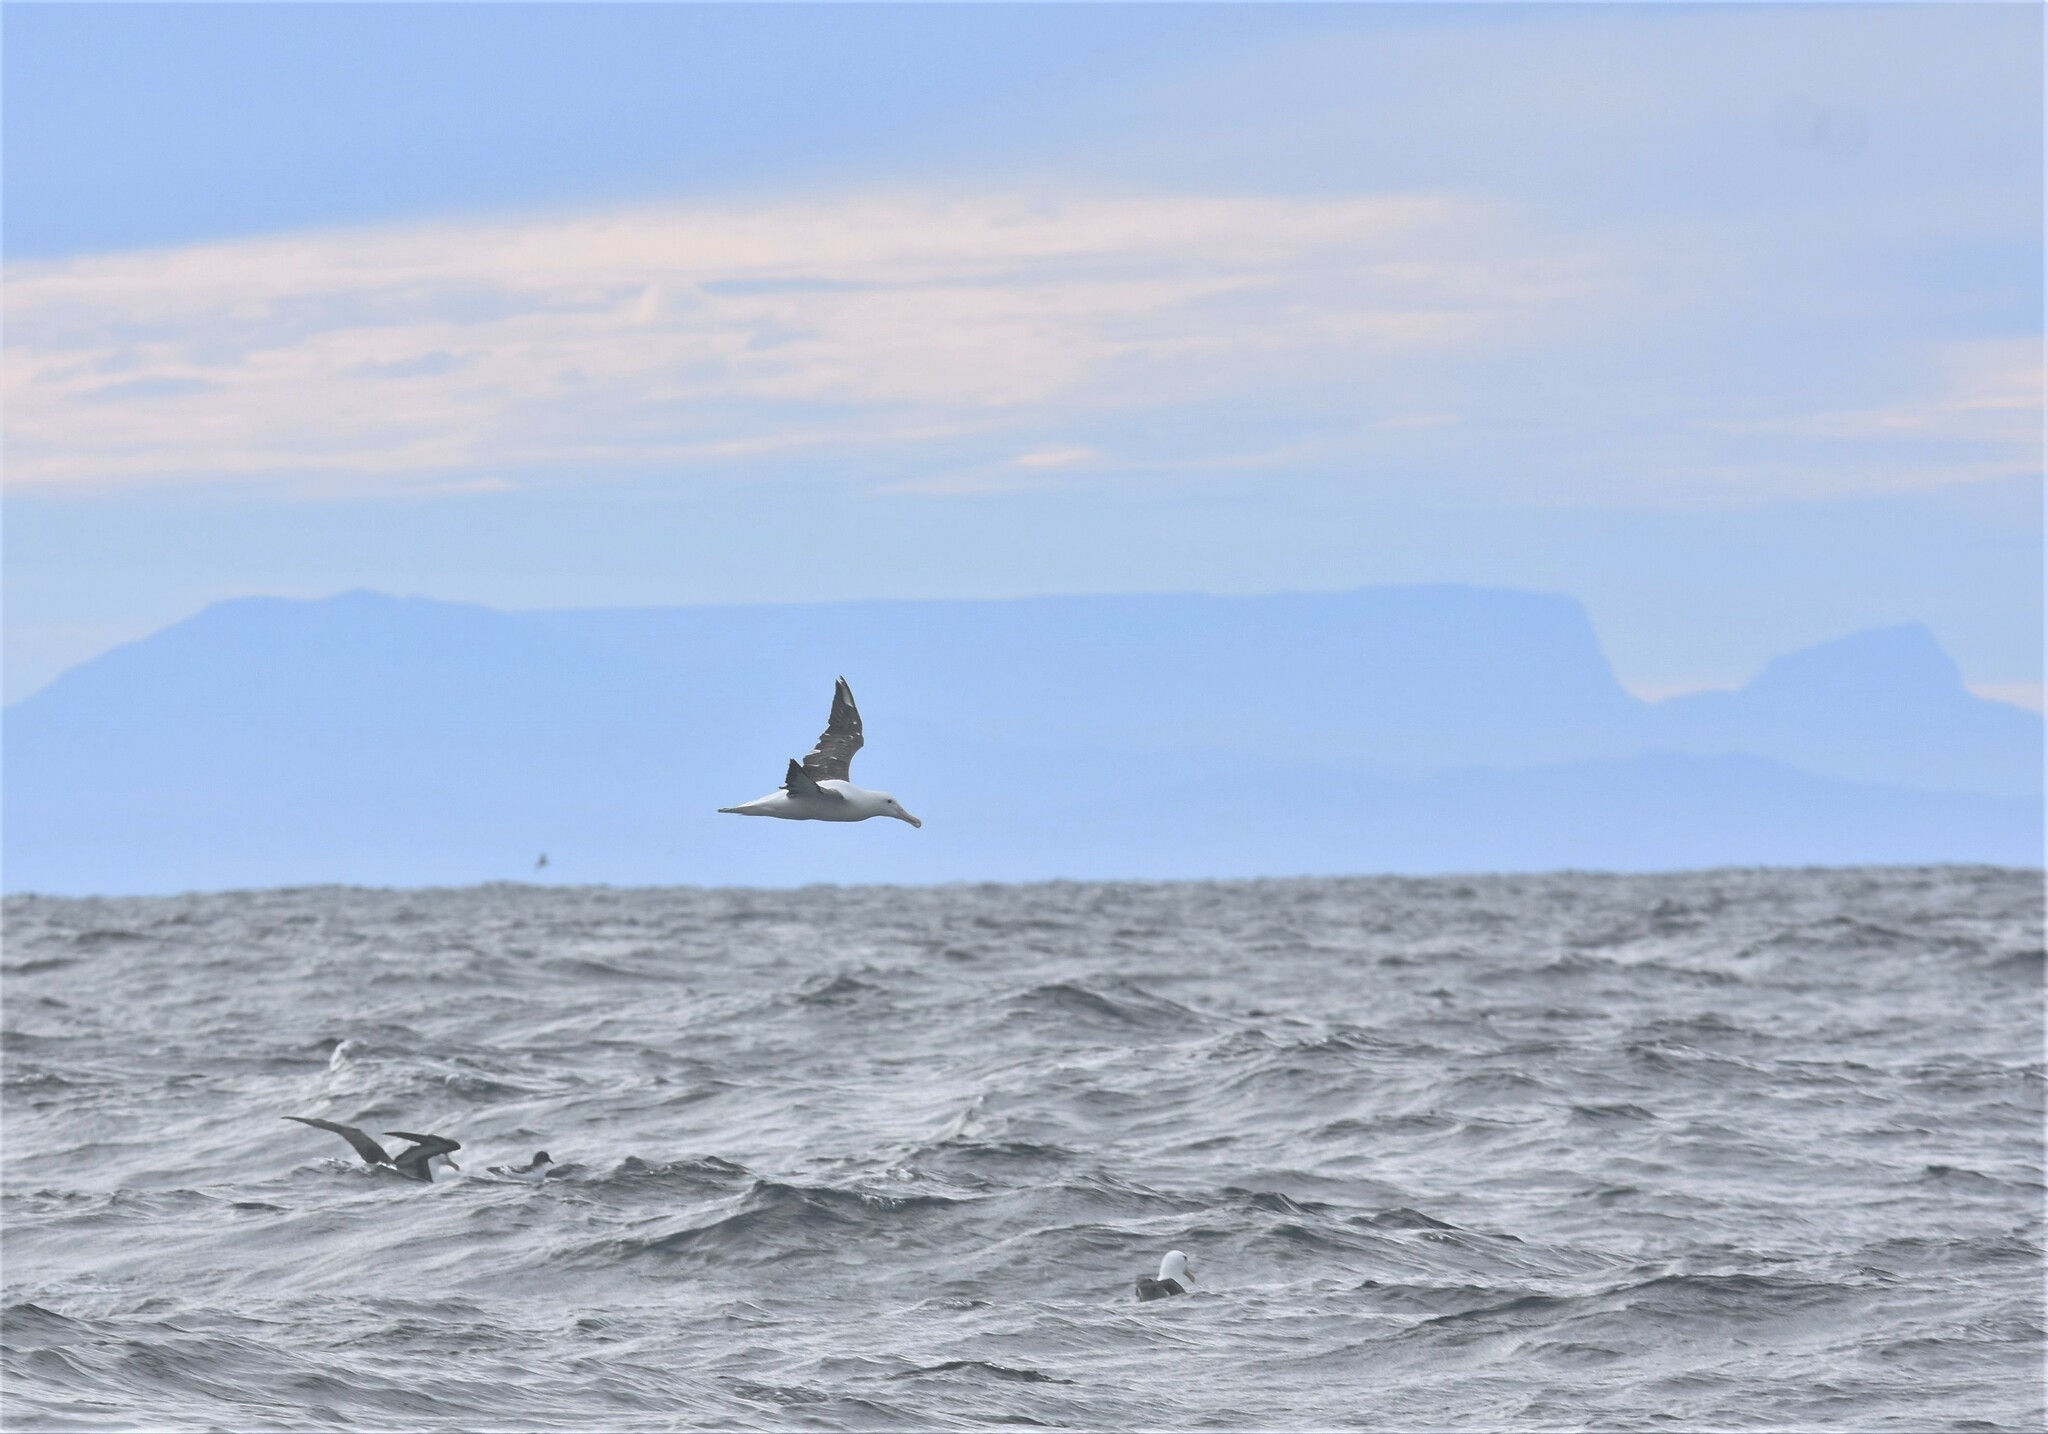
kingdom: Animalia
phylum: Chordata
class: Aves
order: Procellariiformes
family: Diomedeidae
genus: Diomedea
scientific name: Diomedea sanfordi
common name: Northern royal albatross
